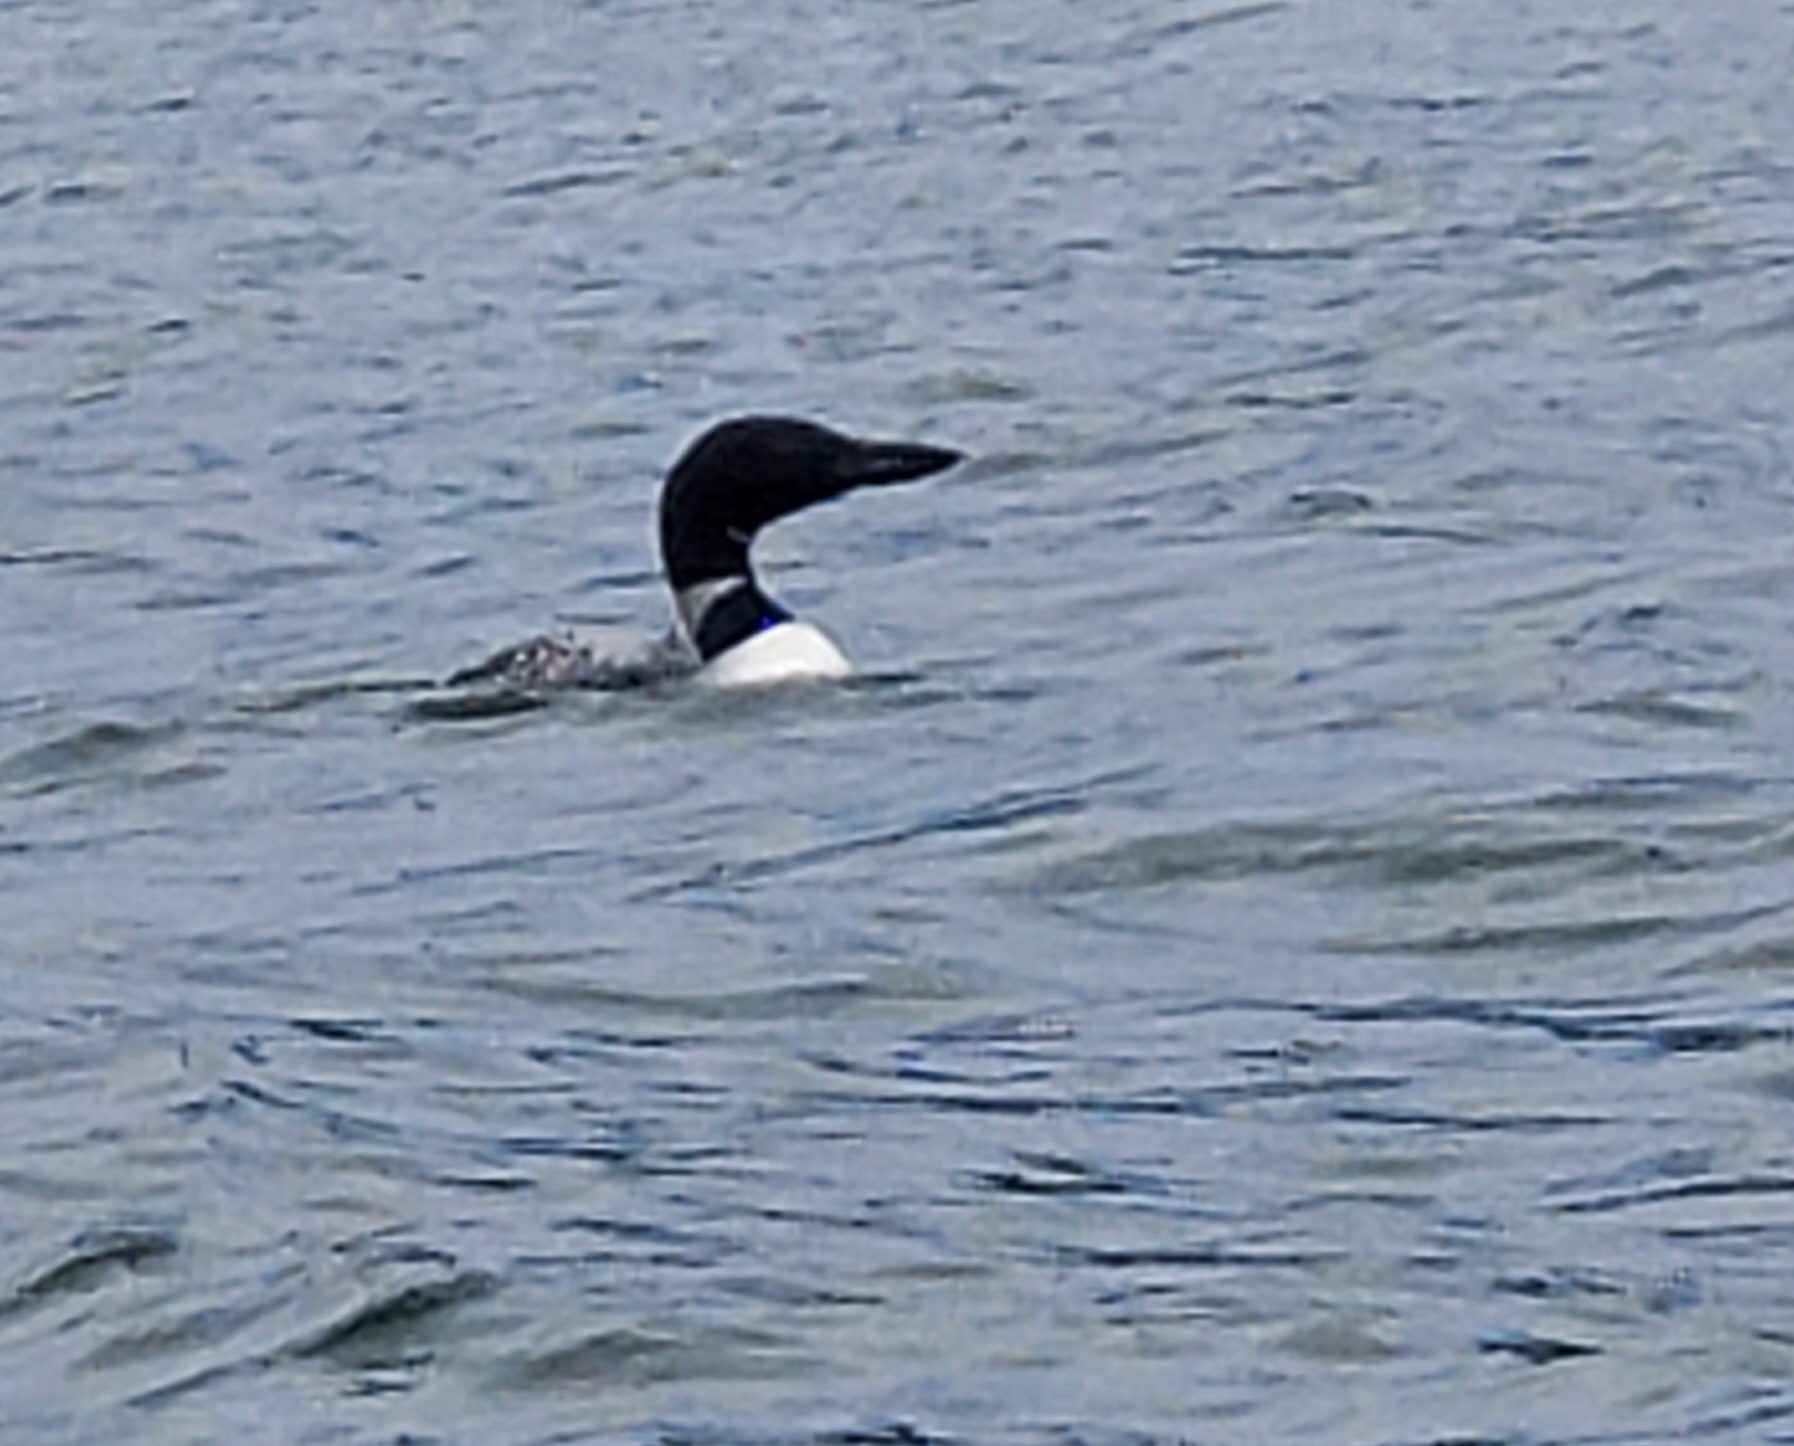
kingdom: Animalia
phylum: Chordata
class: Aves
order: Gaviiformes
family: Gaviidae
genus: Gavia
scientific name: Gavia immer
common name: Common loon
